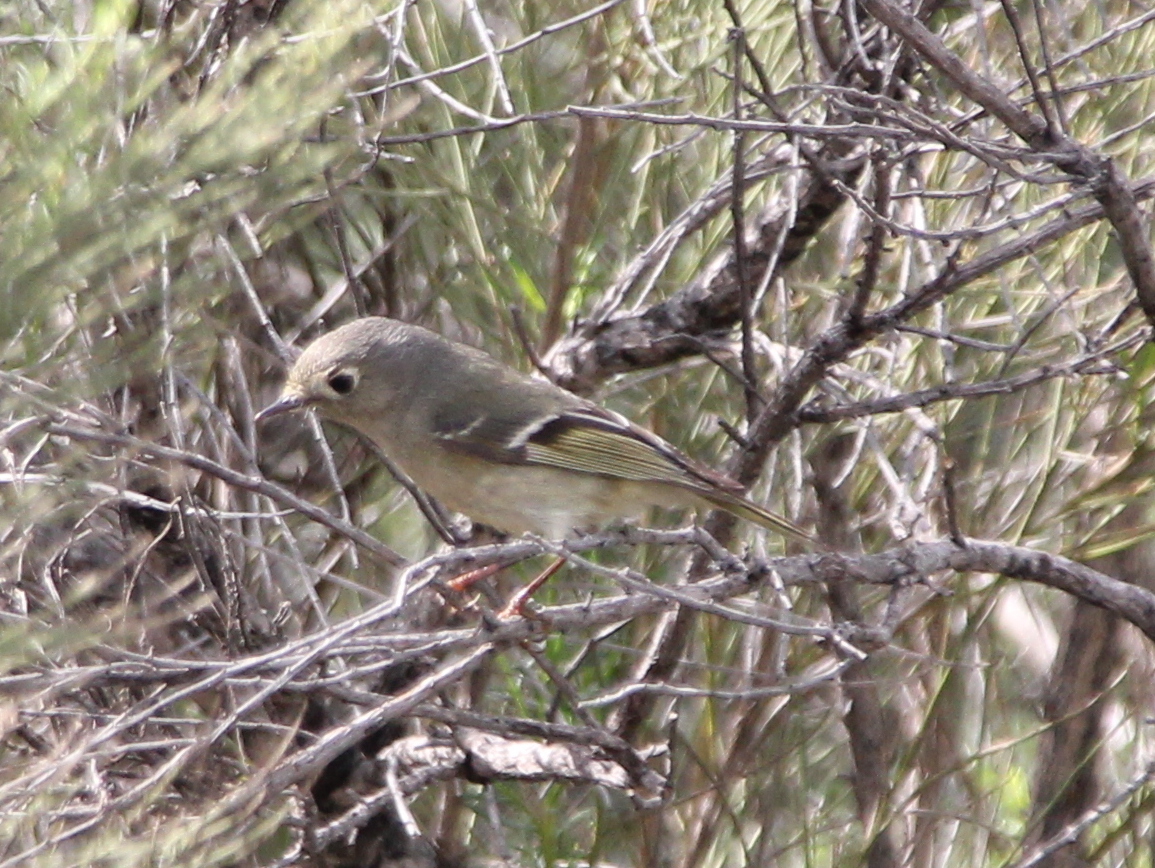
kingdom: Animalia
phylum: Chordata
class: Aves
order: Passeriformes
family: Regulidae
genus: Regulus
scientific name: Regulus calendula
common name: Ruby-crowned kinglet
